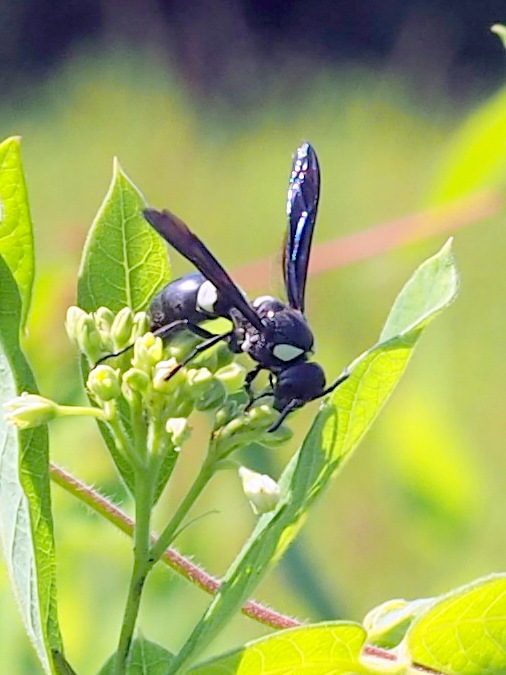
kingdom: Animalia
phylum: Arthropoda
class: Insecta
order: Hymenoptera
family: Eumenidae
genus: Monobia
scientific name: Monobia quadridens
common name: Four-toothed mason wasp
